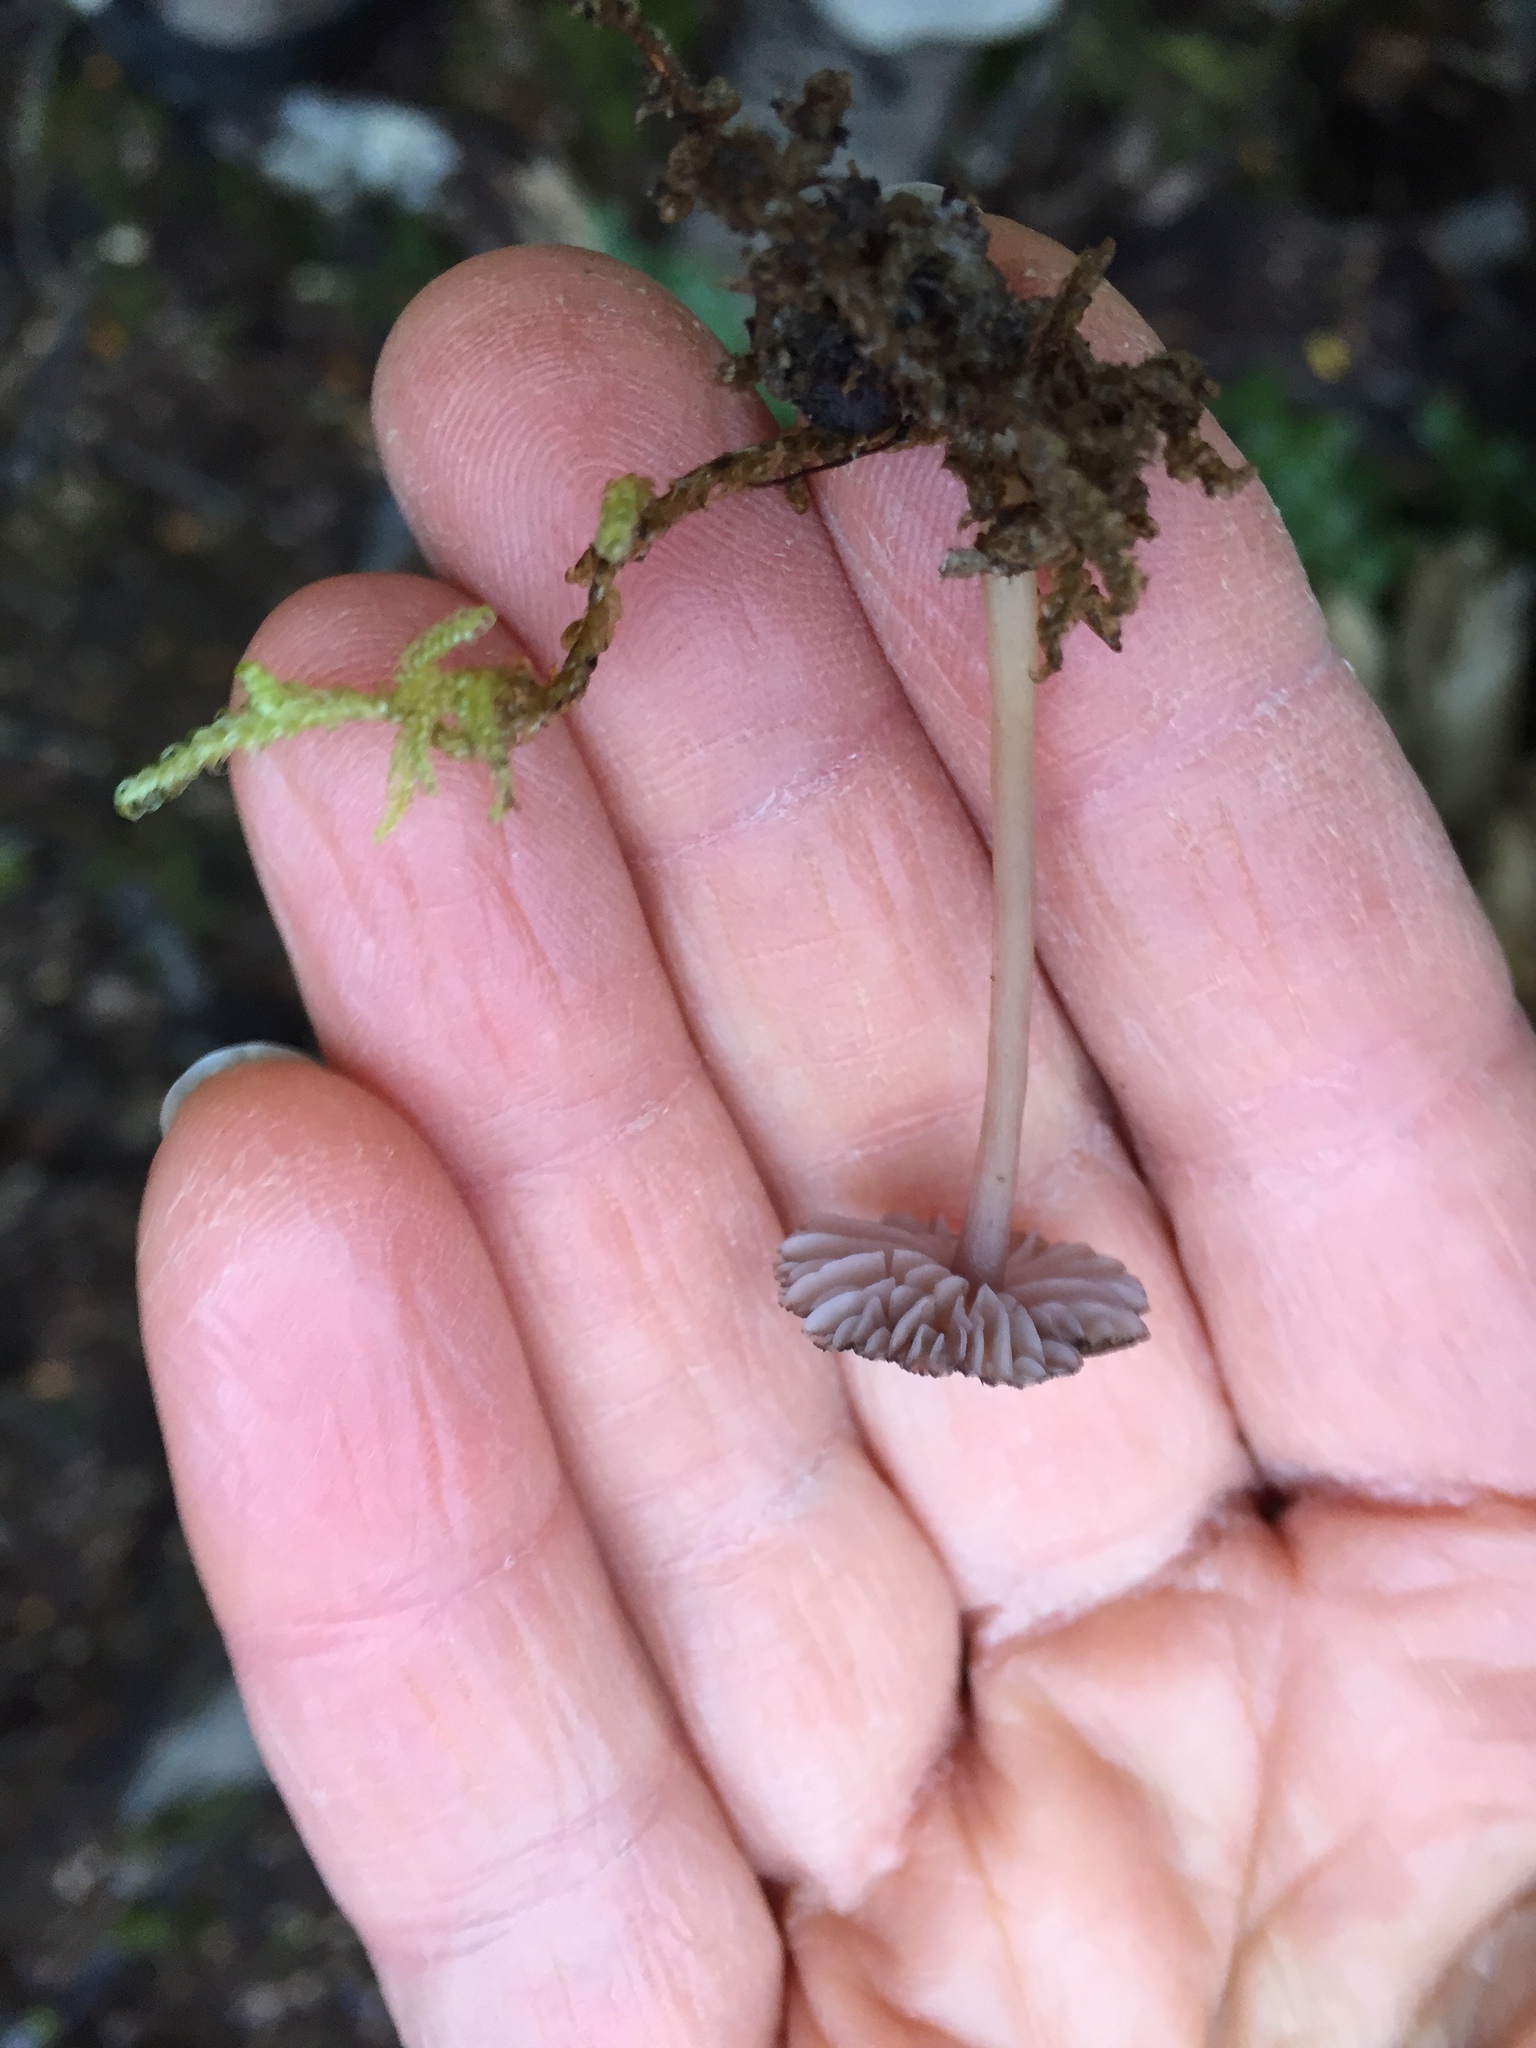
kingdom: Fungi
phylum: Basidiomycota
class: Agaricomycetes
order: Agaricales
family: Hydnangiaceae
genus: Laccaria
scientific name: Laccaria masoniae
